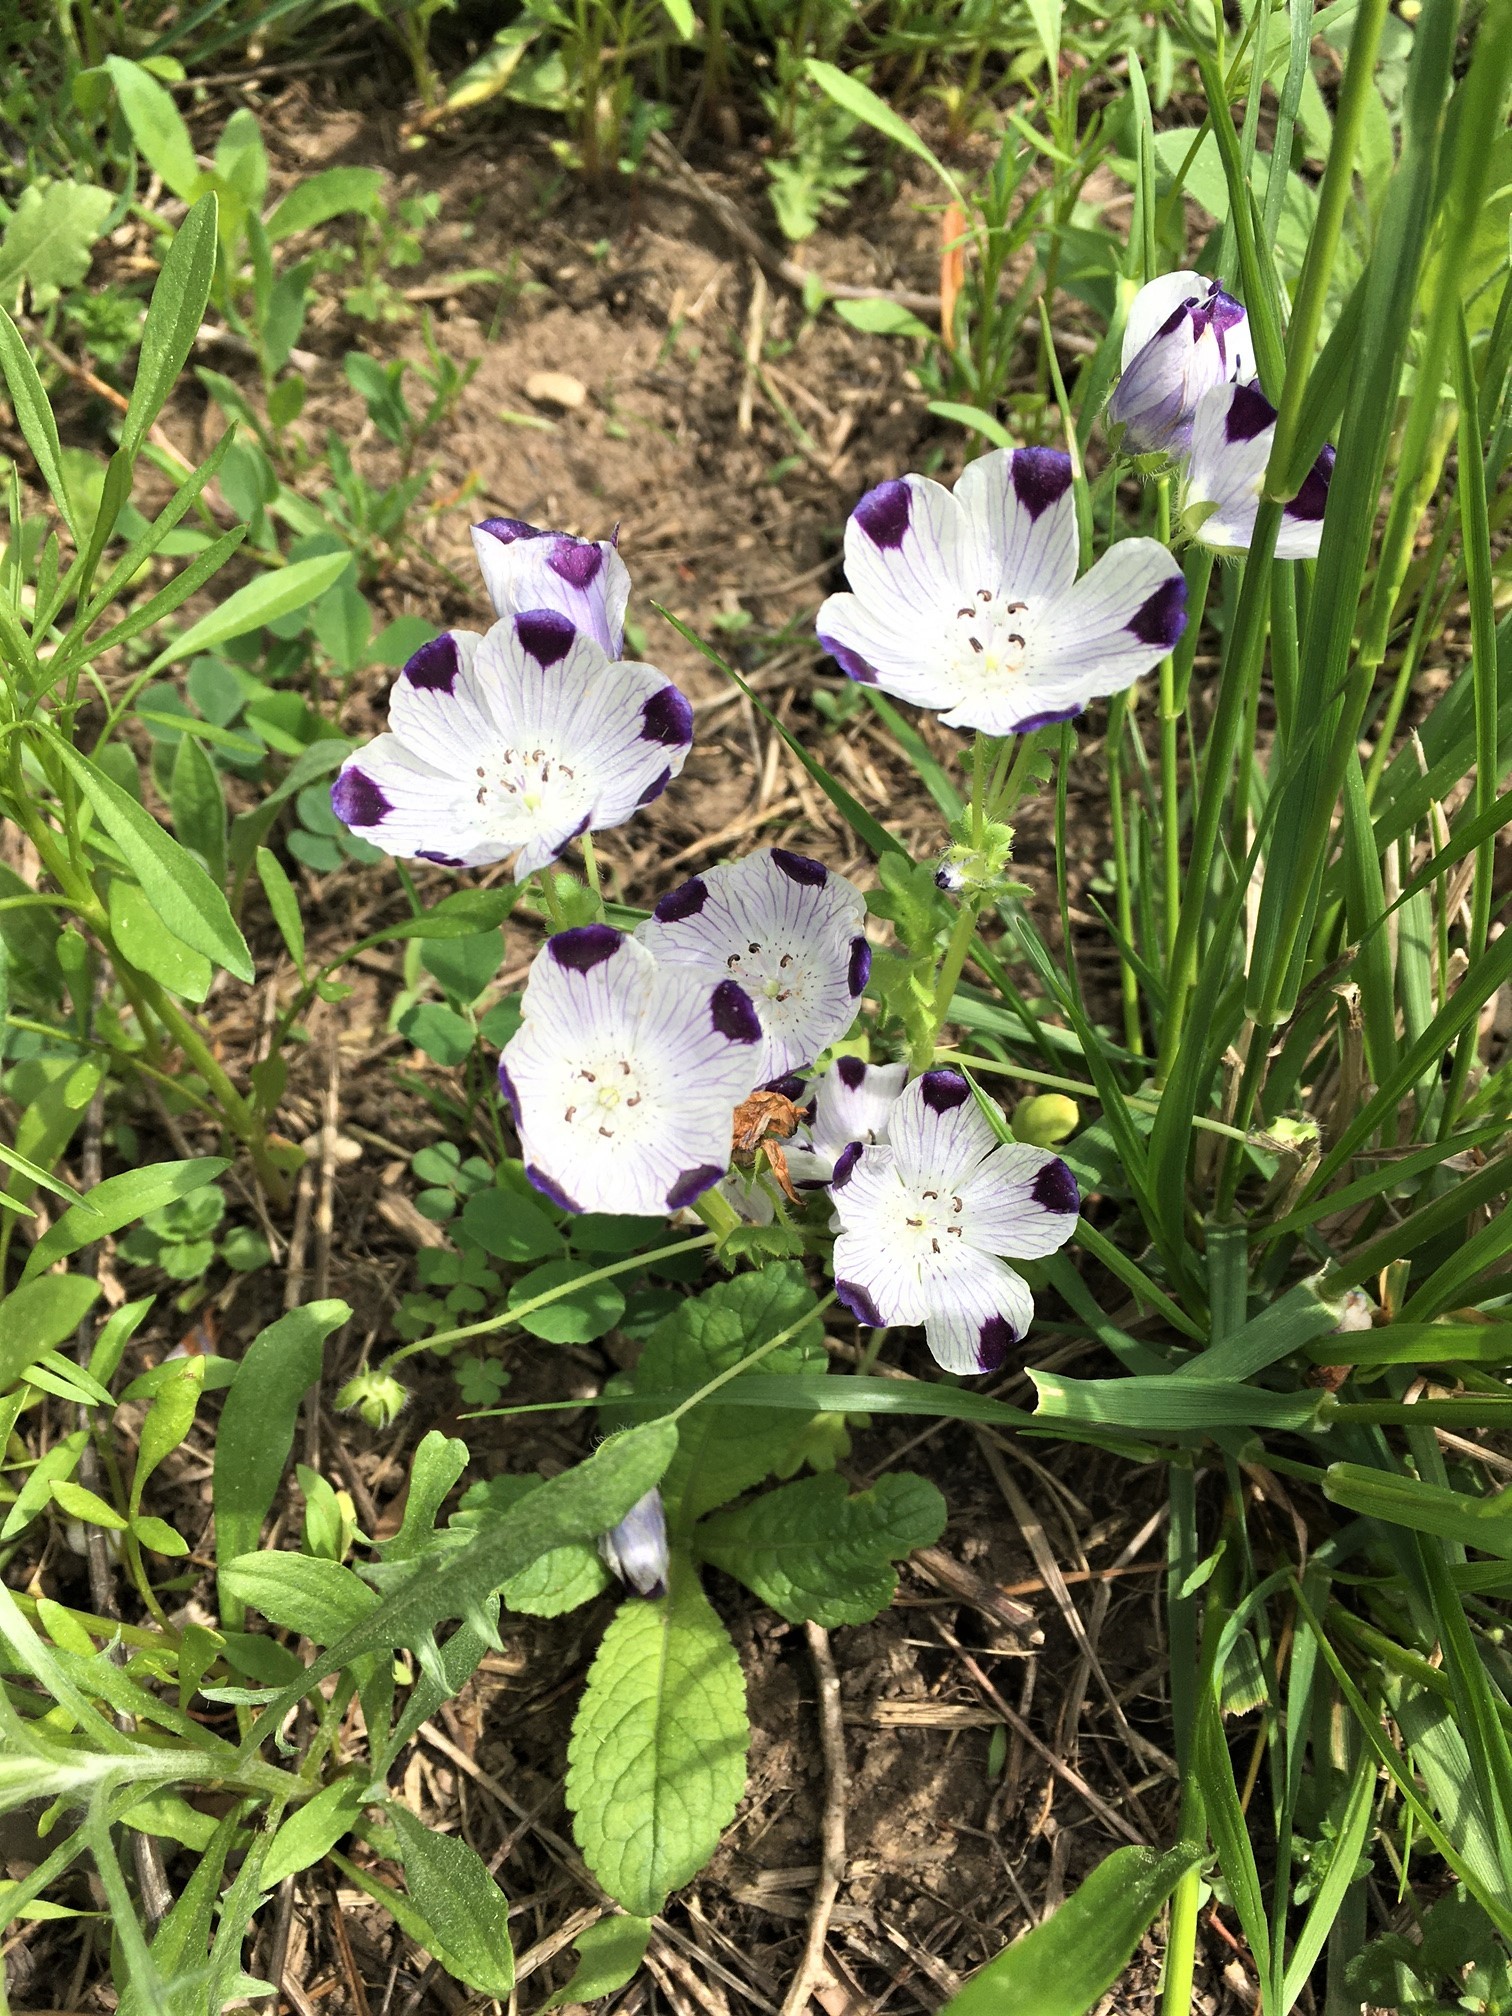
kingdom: Plantae
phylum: Tracheophyta
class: Magnoliopsida
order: Boraginales
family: Hydrophyllaceae
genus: Nemophila
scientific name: Nemophila maculata
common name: Fivespot
